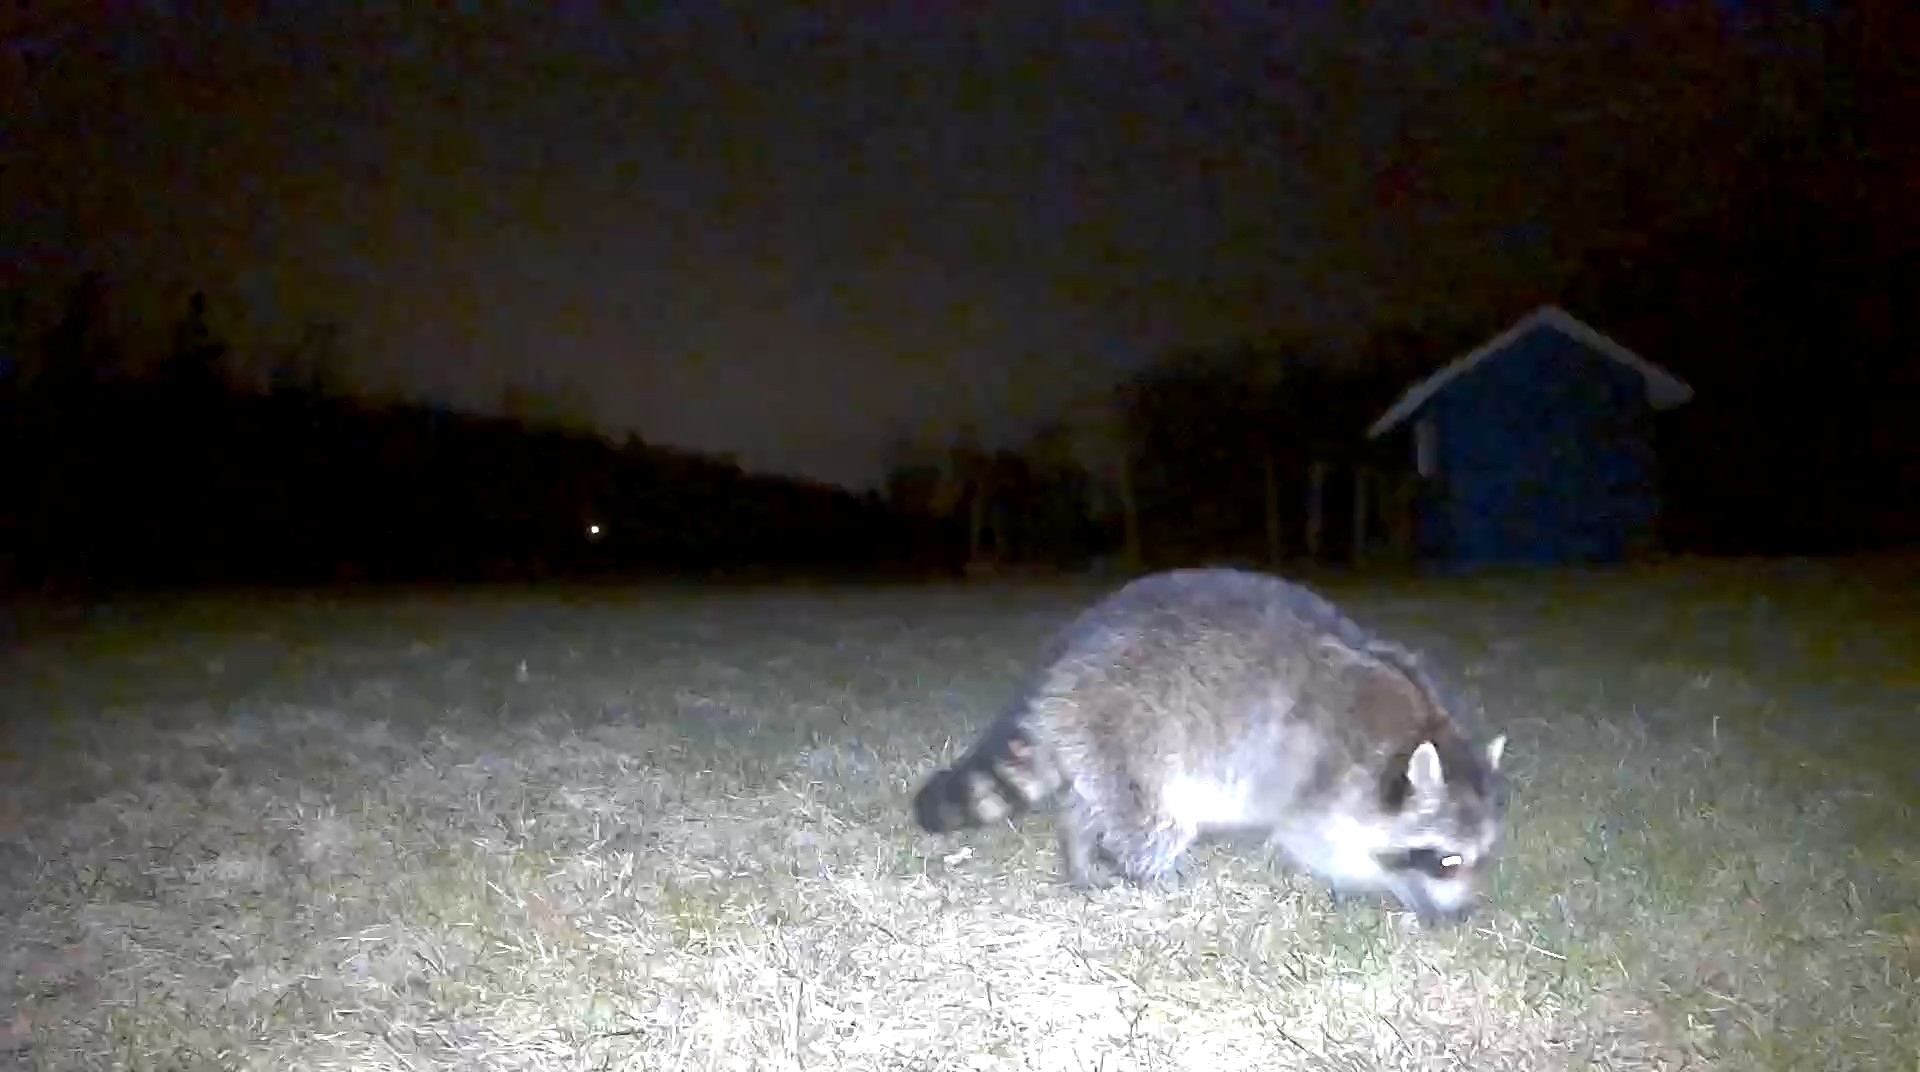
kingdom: Animalia
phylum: Chordata
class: Mammalia
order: Carnivora
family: Procyonidae
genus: Procyon
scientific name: Procyon lotor
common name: Raccoon
